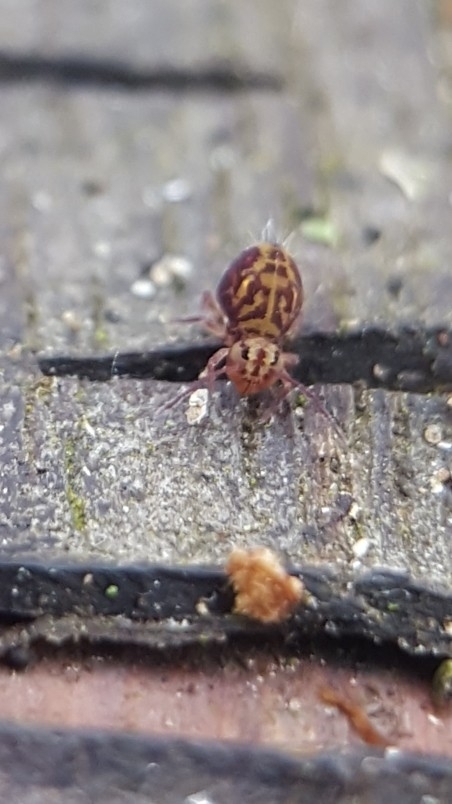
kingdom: Animalia
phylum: Arthropoda
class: Collembola
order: Symphypleona
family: Dicyrtomidae
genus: Dicyrtomina
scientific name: Dicyrtomina ornata
